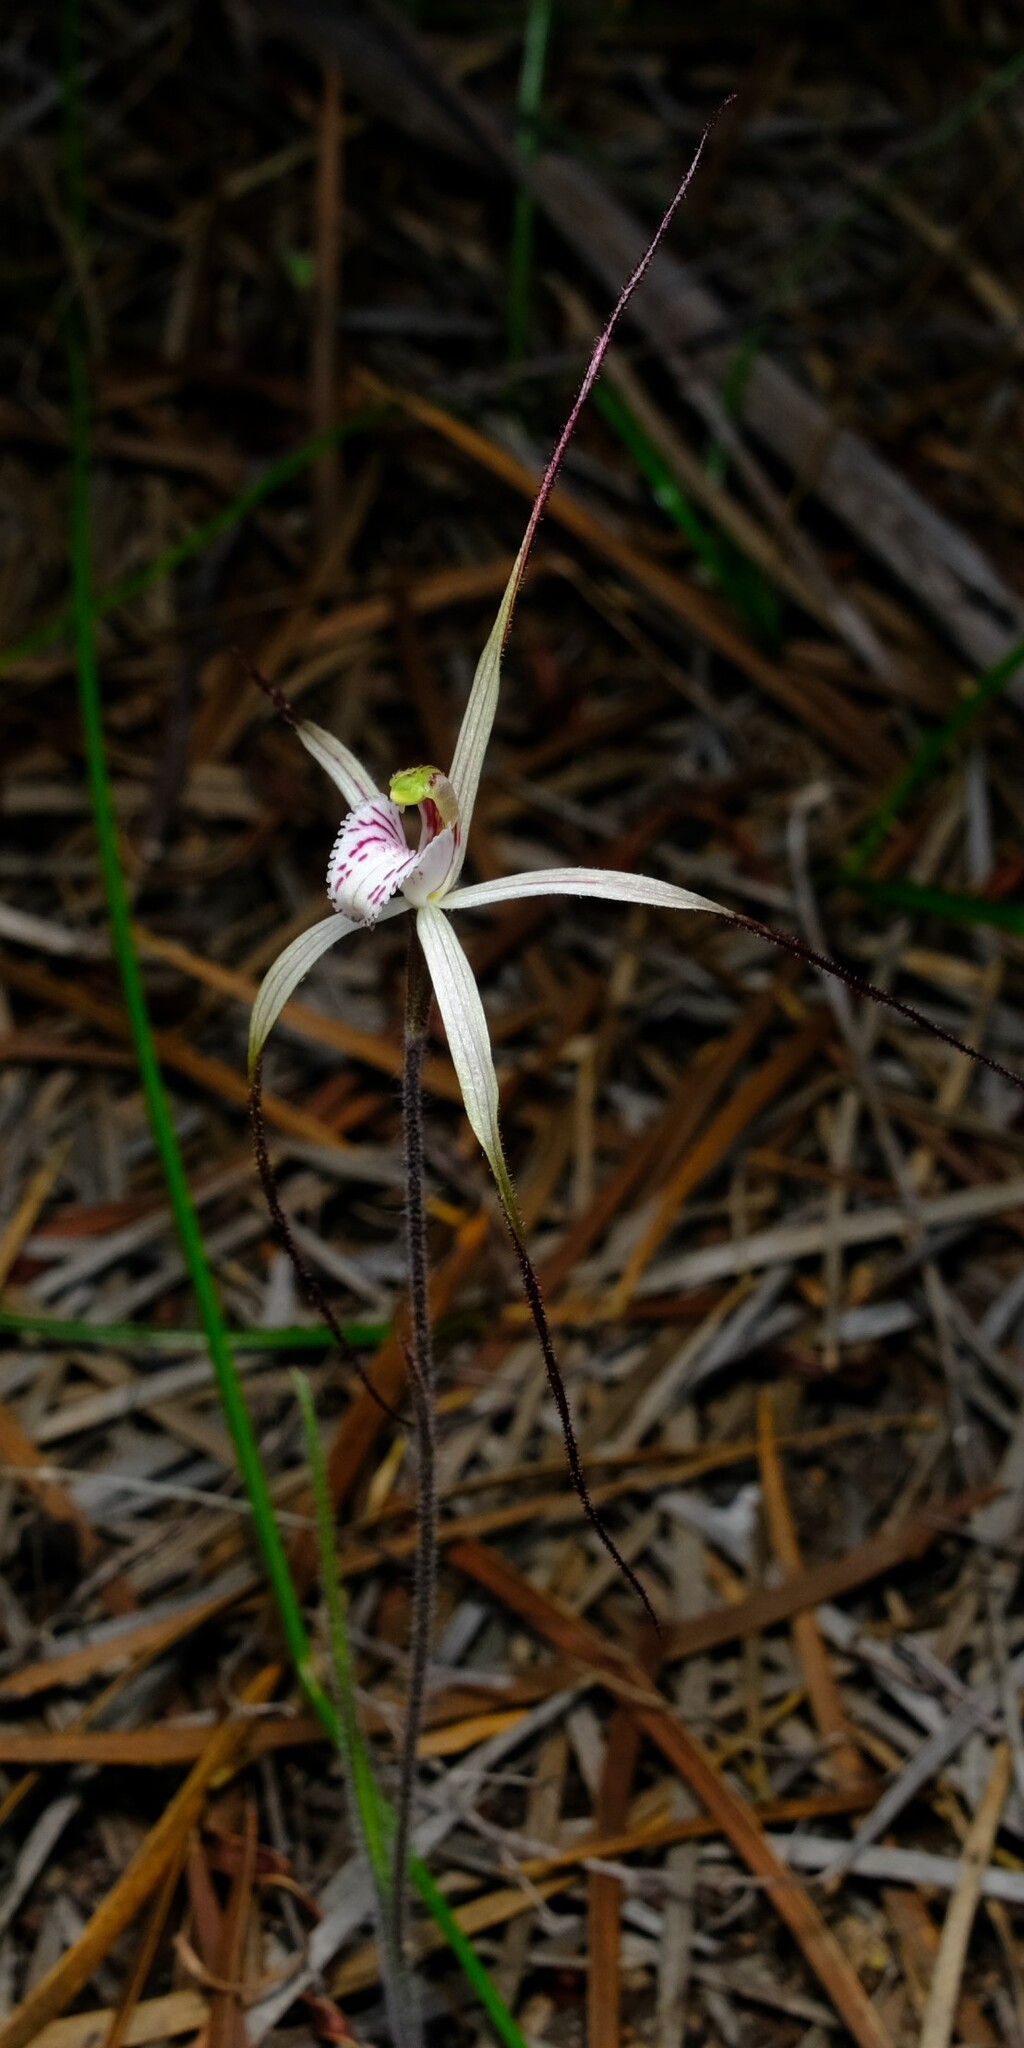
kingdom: Plantae
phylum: Tracheophyta
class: Liliopsida
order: Asparagales
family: Orchidaceae
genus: Caladenia
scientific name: Caladenia varians
